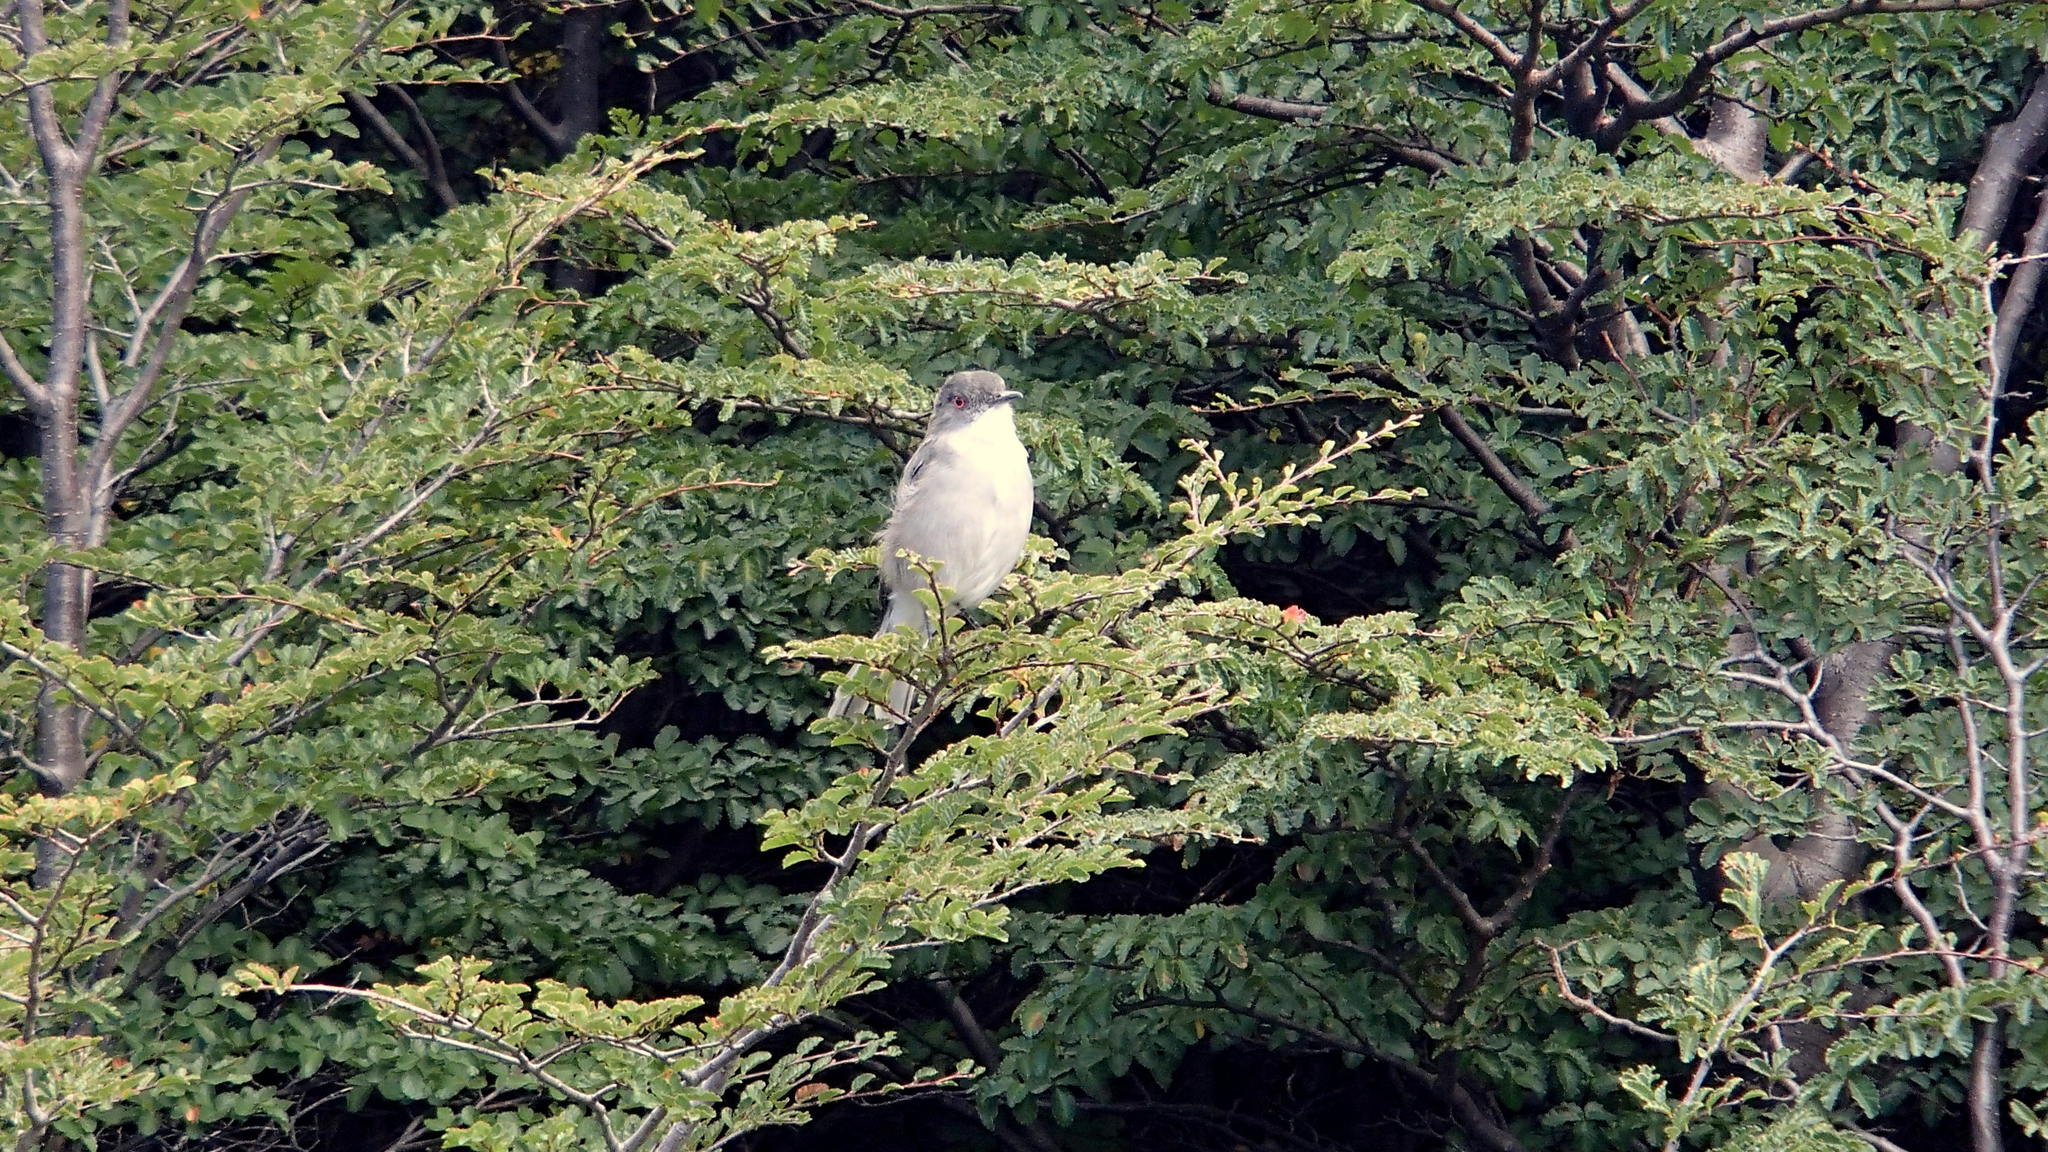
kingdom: Animalia
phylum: Chordata
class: Aves
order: Passeriformes
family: Tyrannidae
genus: Xolmis
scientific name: Xolmis pyrope
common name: Fire-eyed diucon
